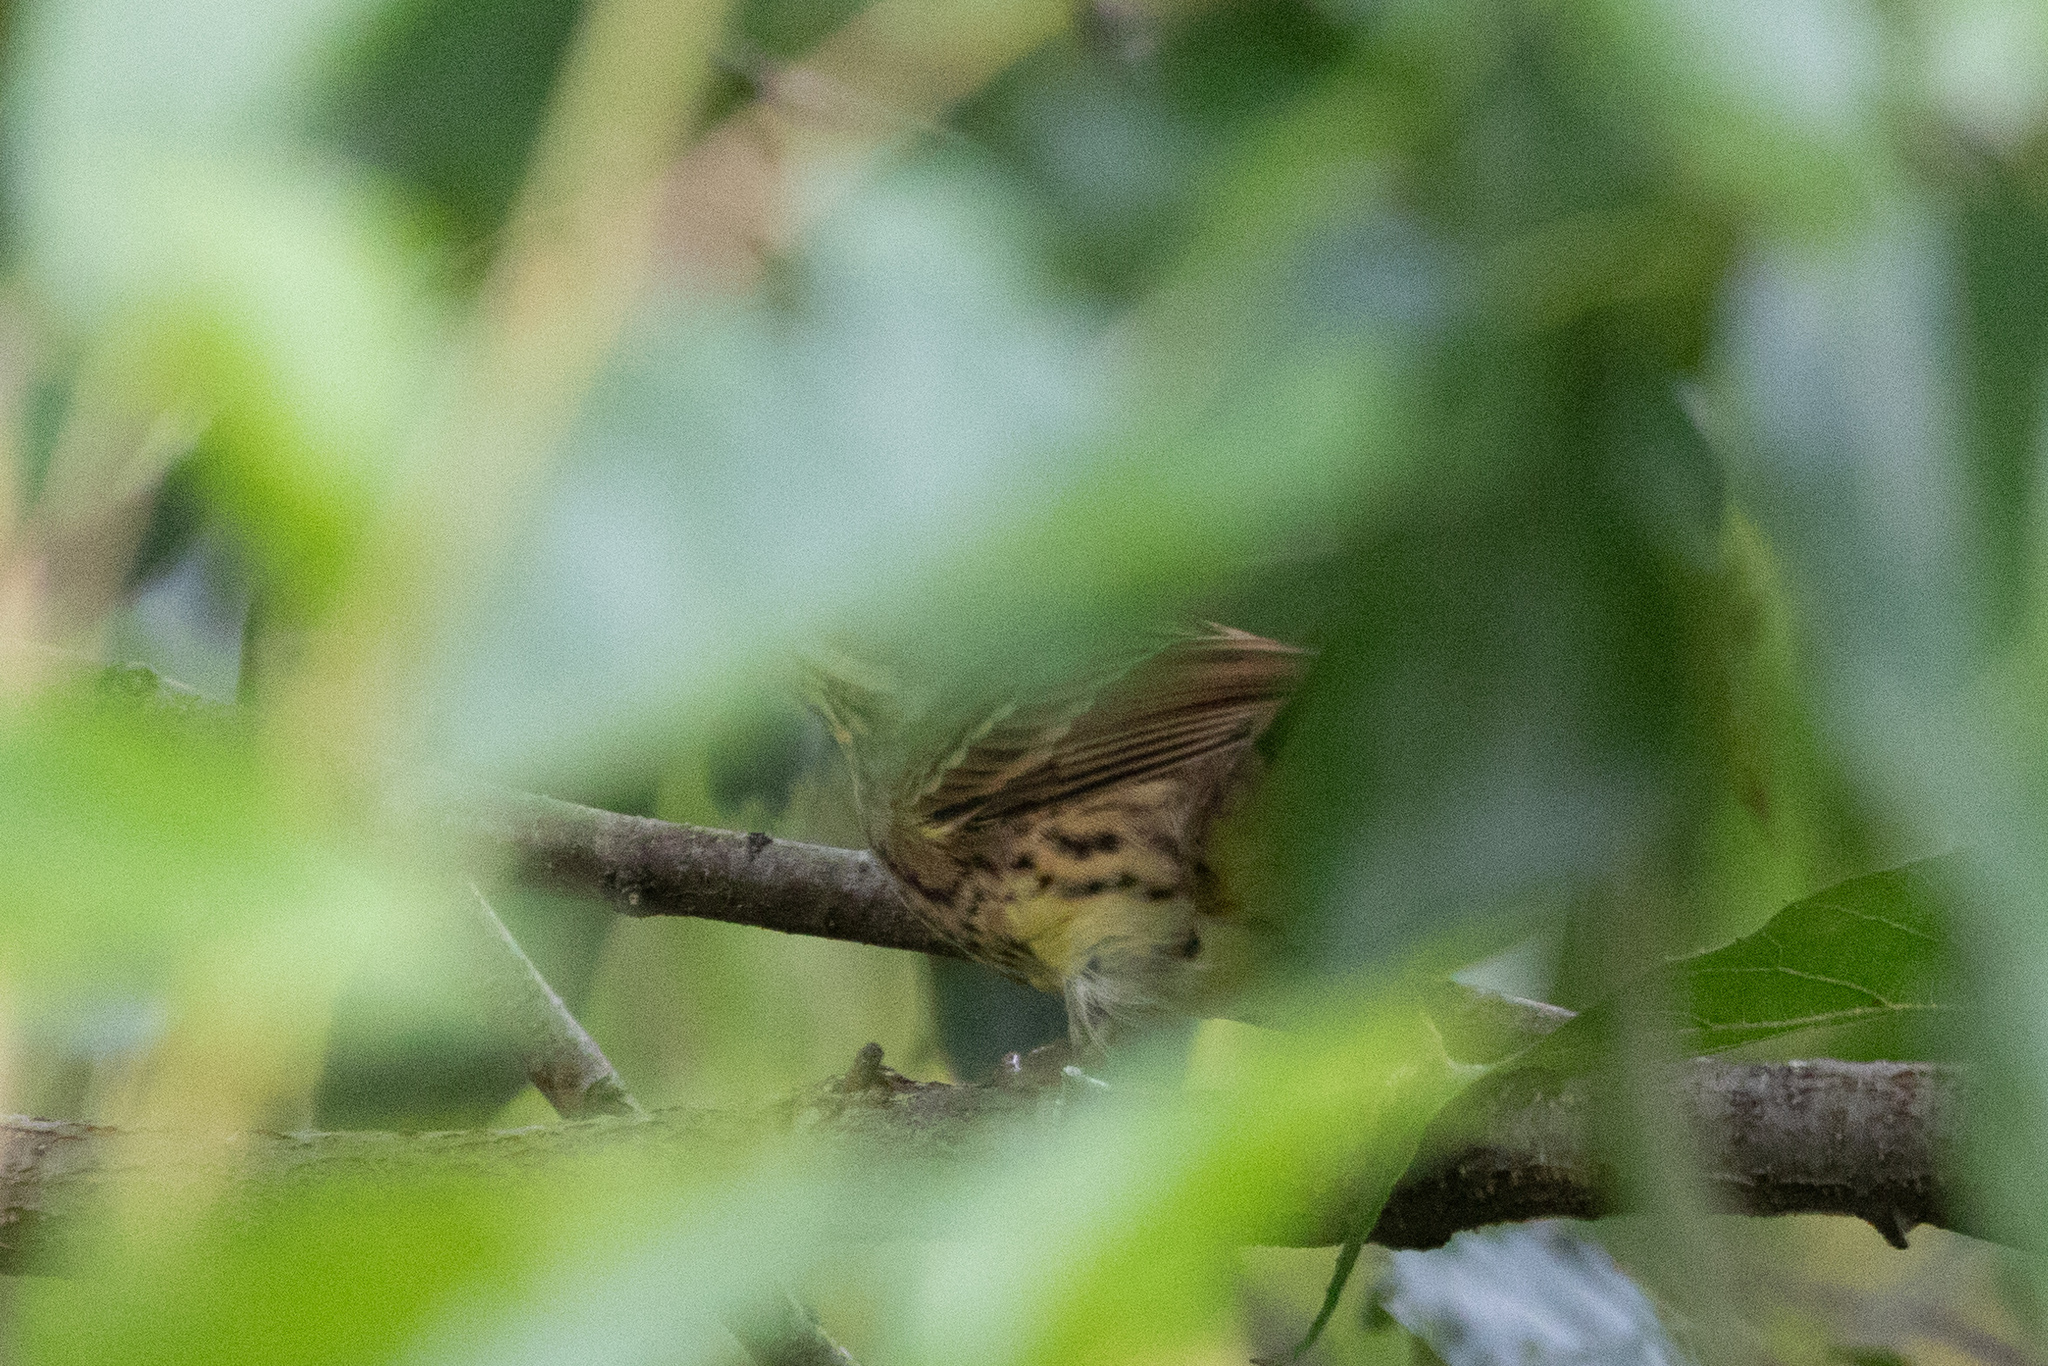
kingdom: Animalia
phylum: Chordata
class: Aves
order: Passeriformes
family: Emberizidae
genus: Emberiza
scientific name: Emberiza personata
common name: Masked bunting
